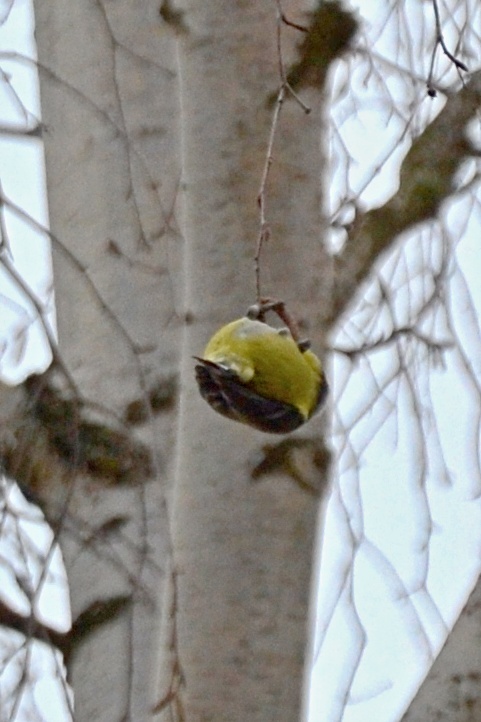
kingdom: Animalia
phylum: Chordata
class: Aves
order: Passeriformes
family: Paridae
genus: Cyanistes
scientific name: Cyanistes caeruleus
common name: Eurasian blue tit
